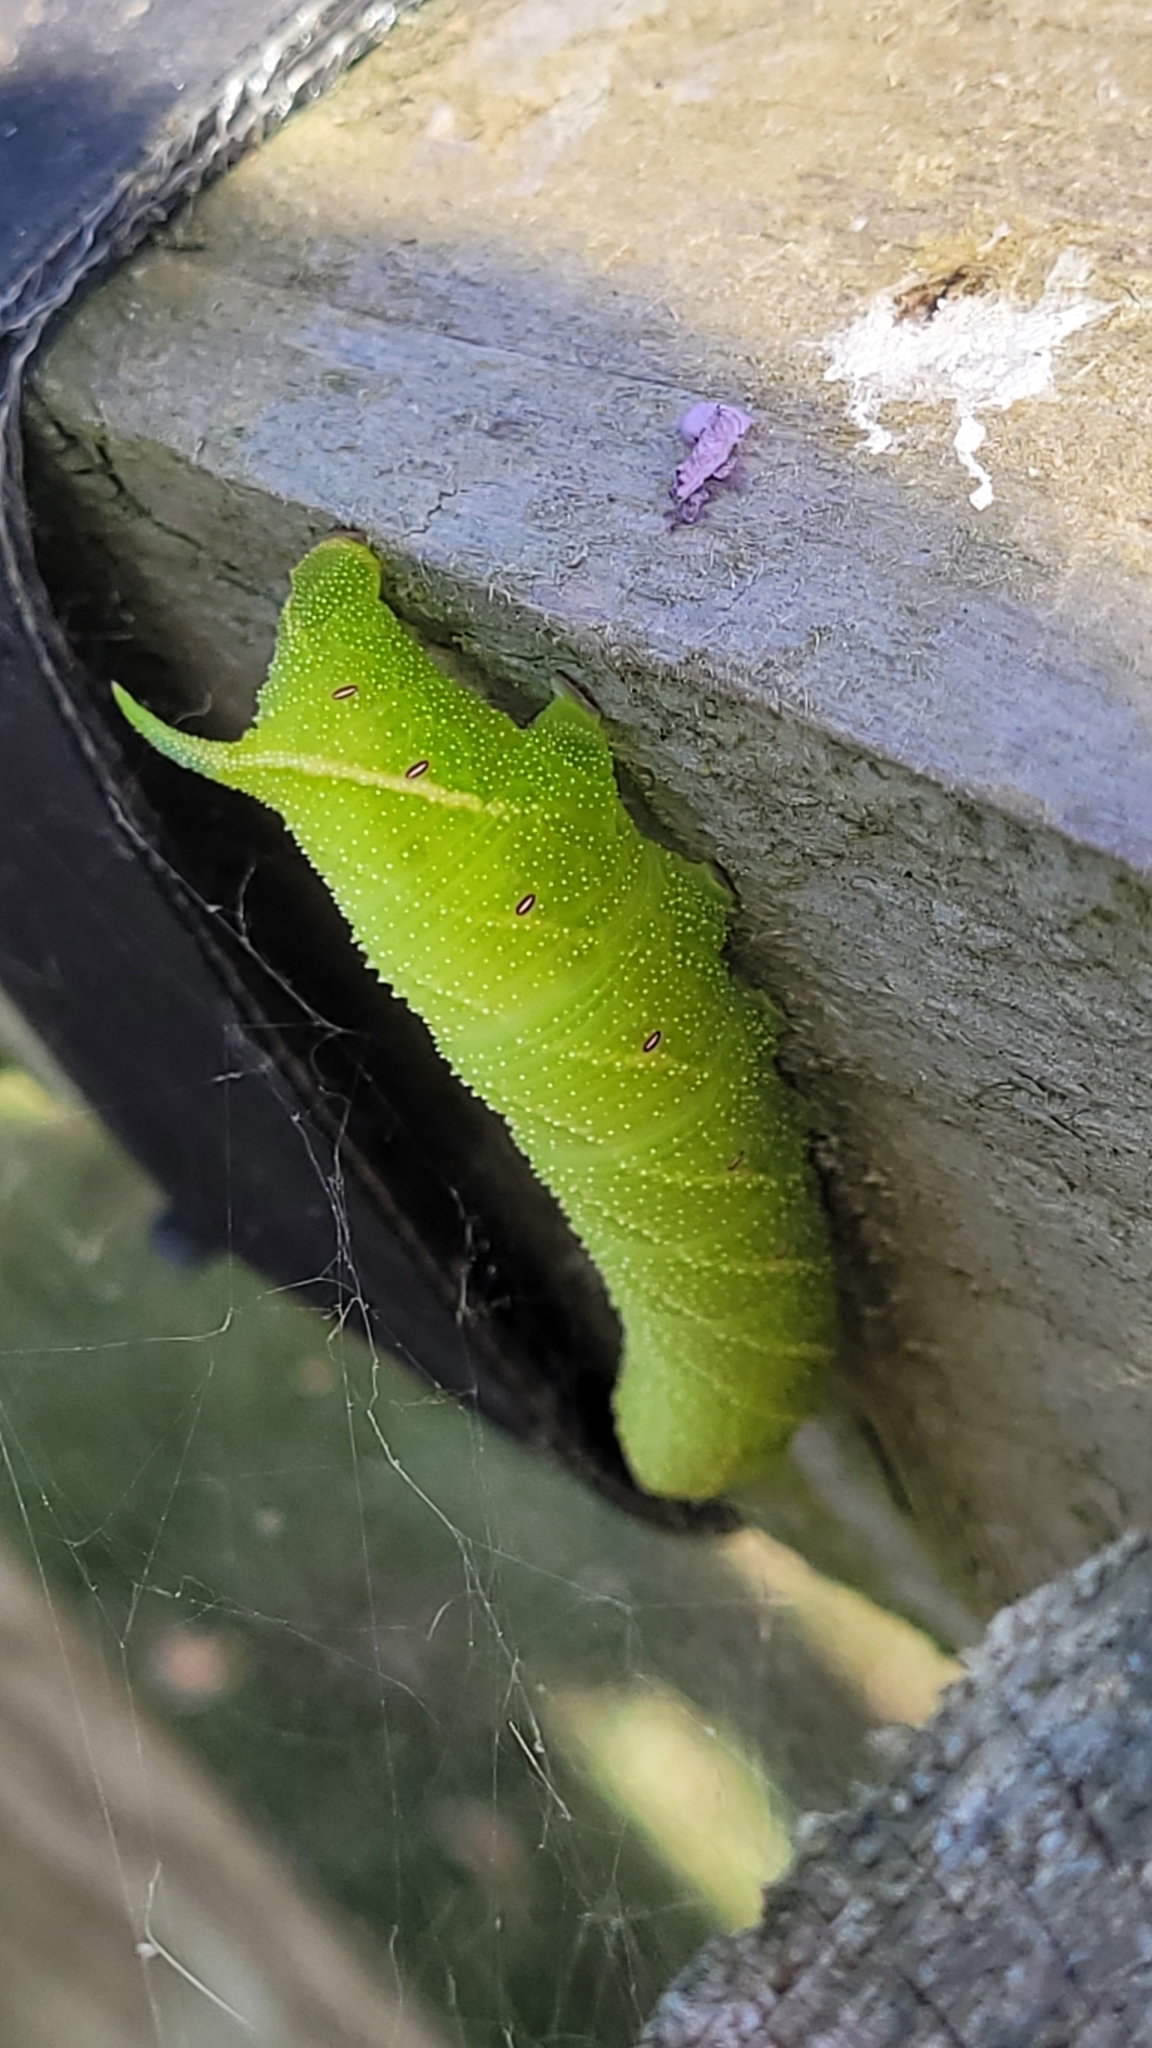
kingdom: Animalia
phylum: Arthropoda
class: Insecta
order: Lepidoptera
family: Sphingidae
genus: Smerinthus
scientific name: Smerinthus ocellata
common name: Eyed hawk-moth
